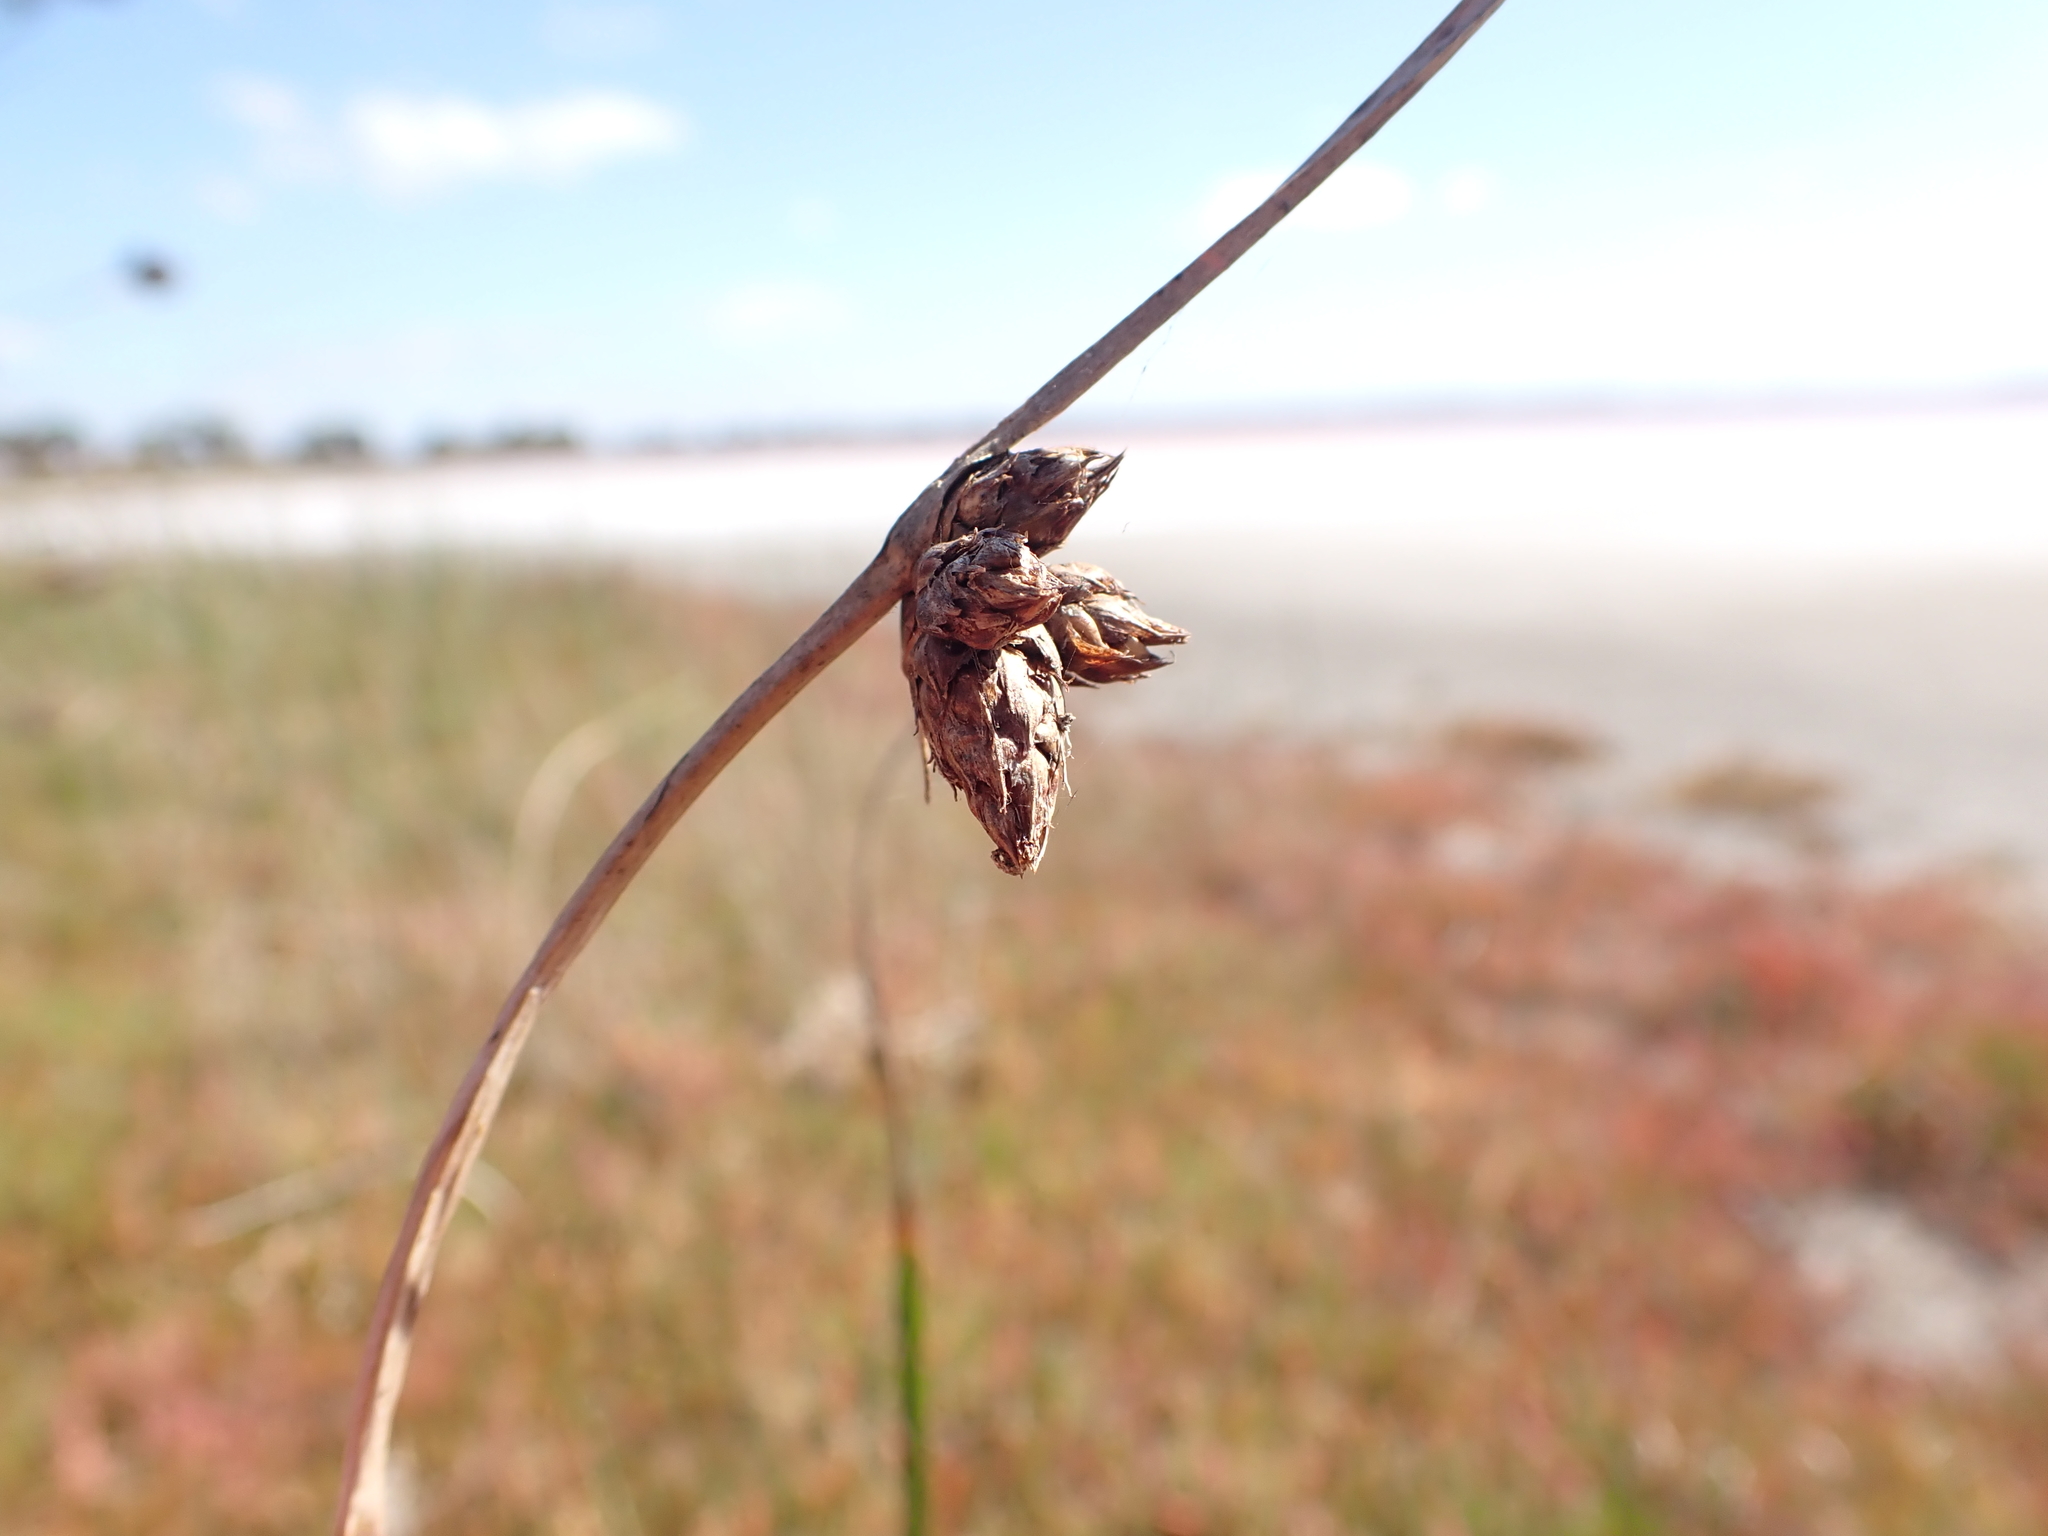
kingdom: Plantae
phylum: Tracheophyta
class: Liliopsida
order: Poales
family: Cyperaceae
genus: Schoenoplectus
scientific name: Schoenoplectus pungens
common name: Sharp club-rush
